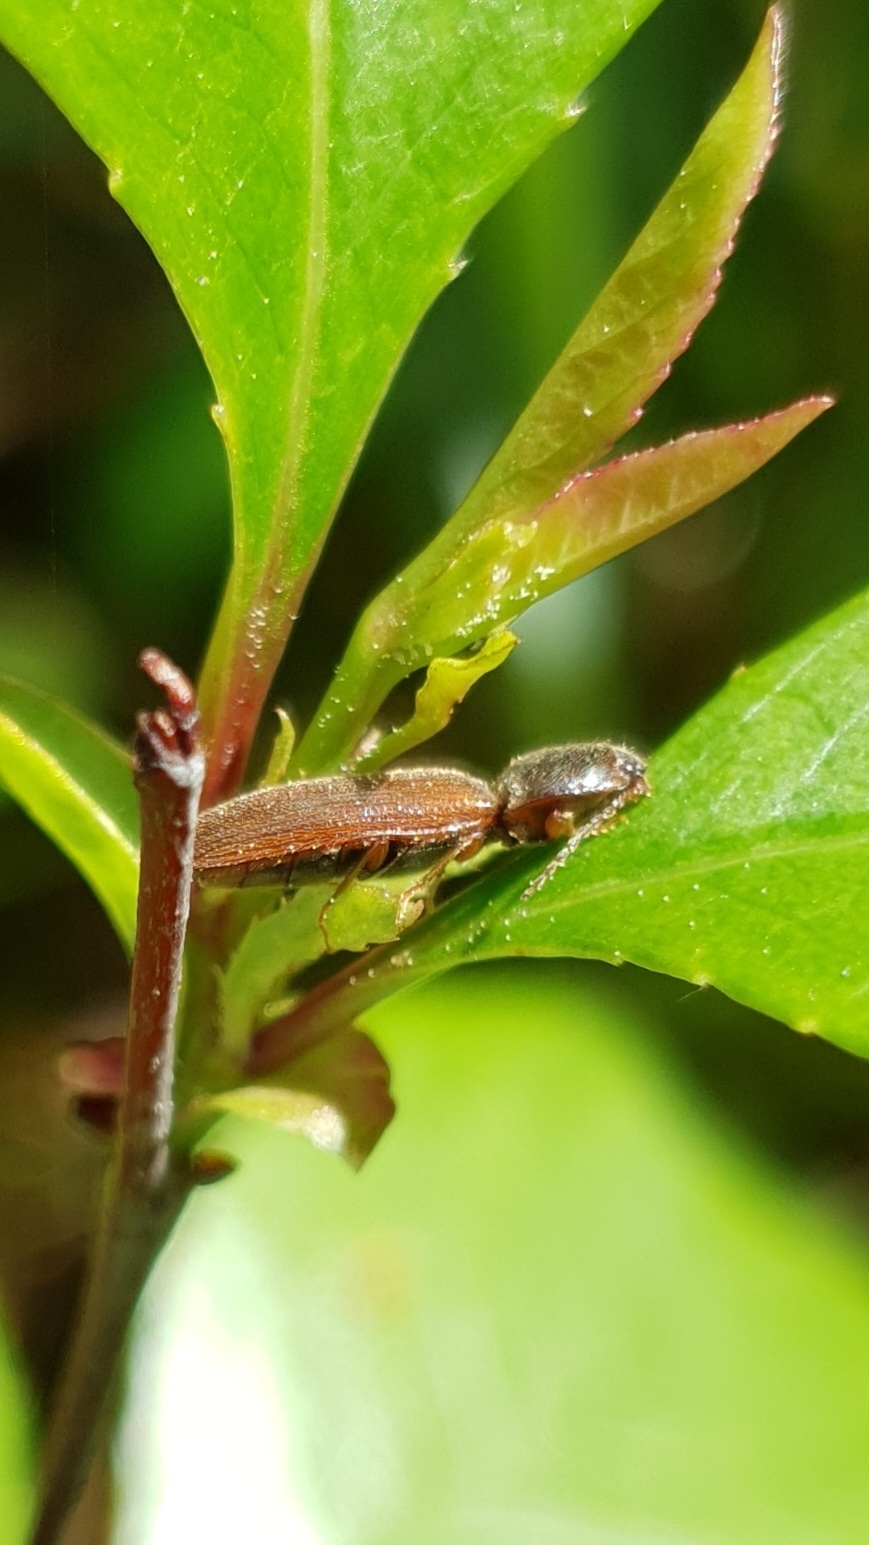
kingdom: Animalia
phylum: Arthropoda
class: Insecta
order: Coleoptera
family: Elateridae
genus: Athous
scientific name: Athous subfuscus
